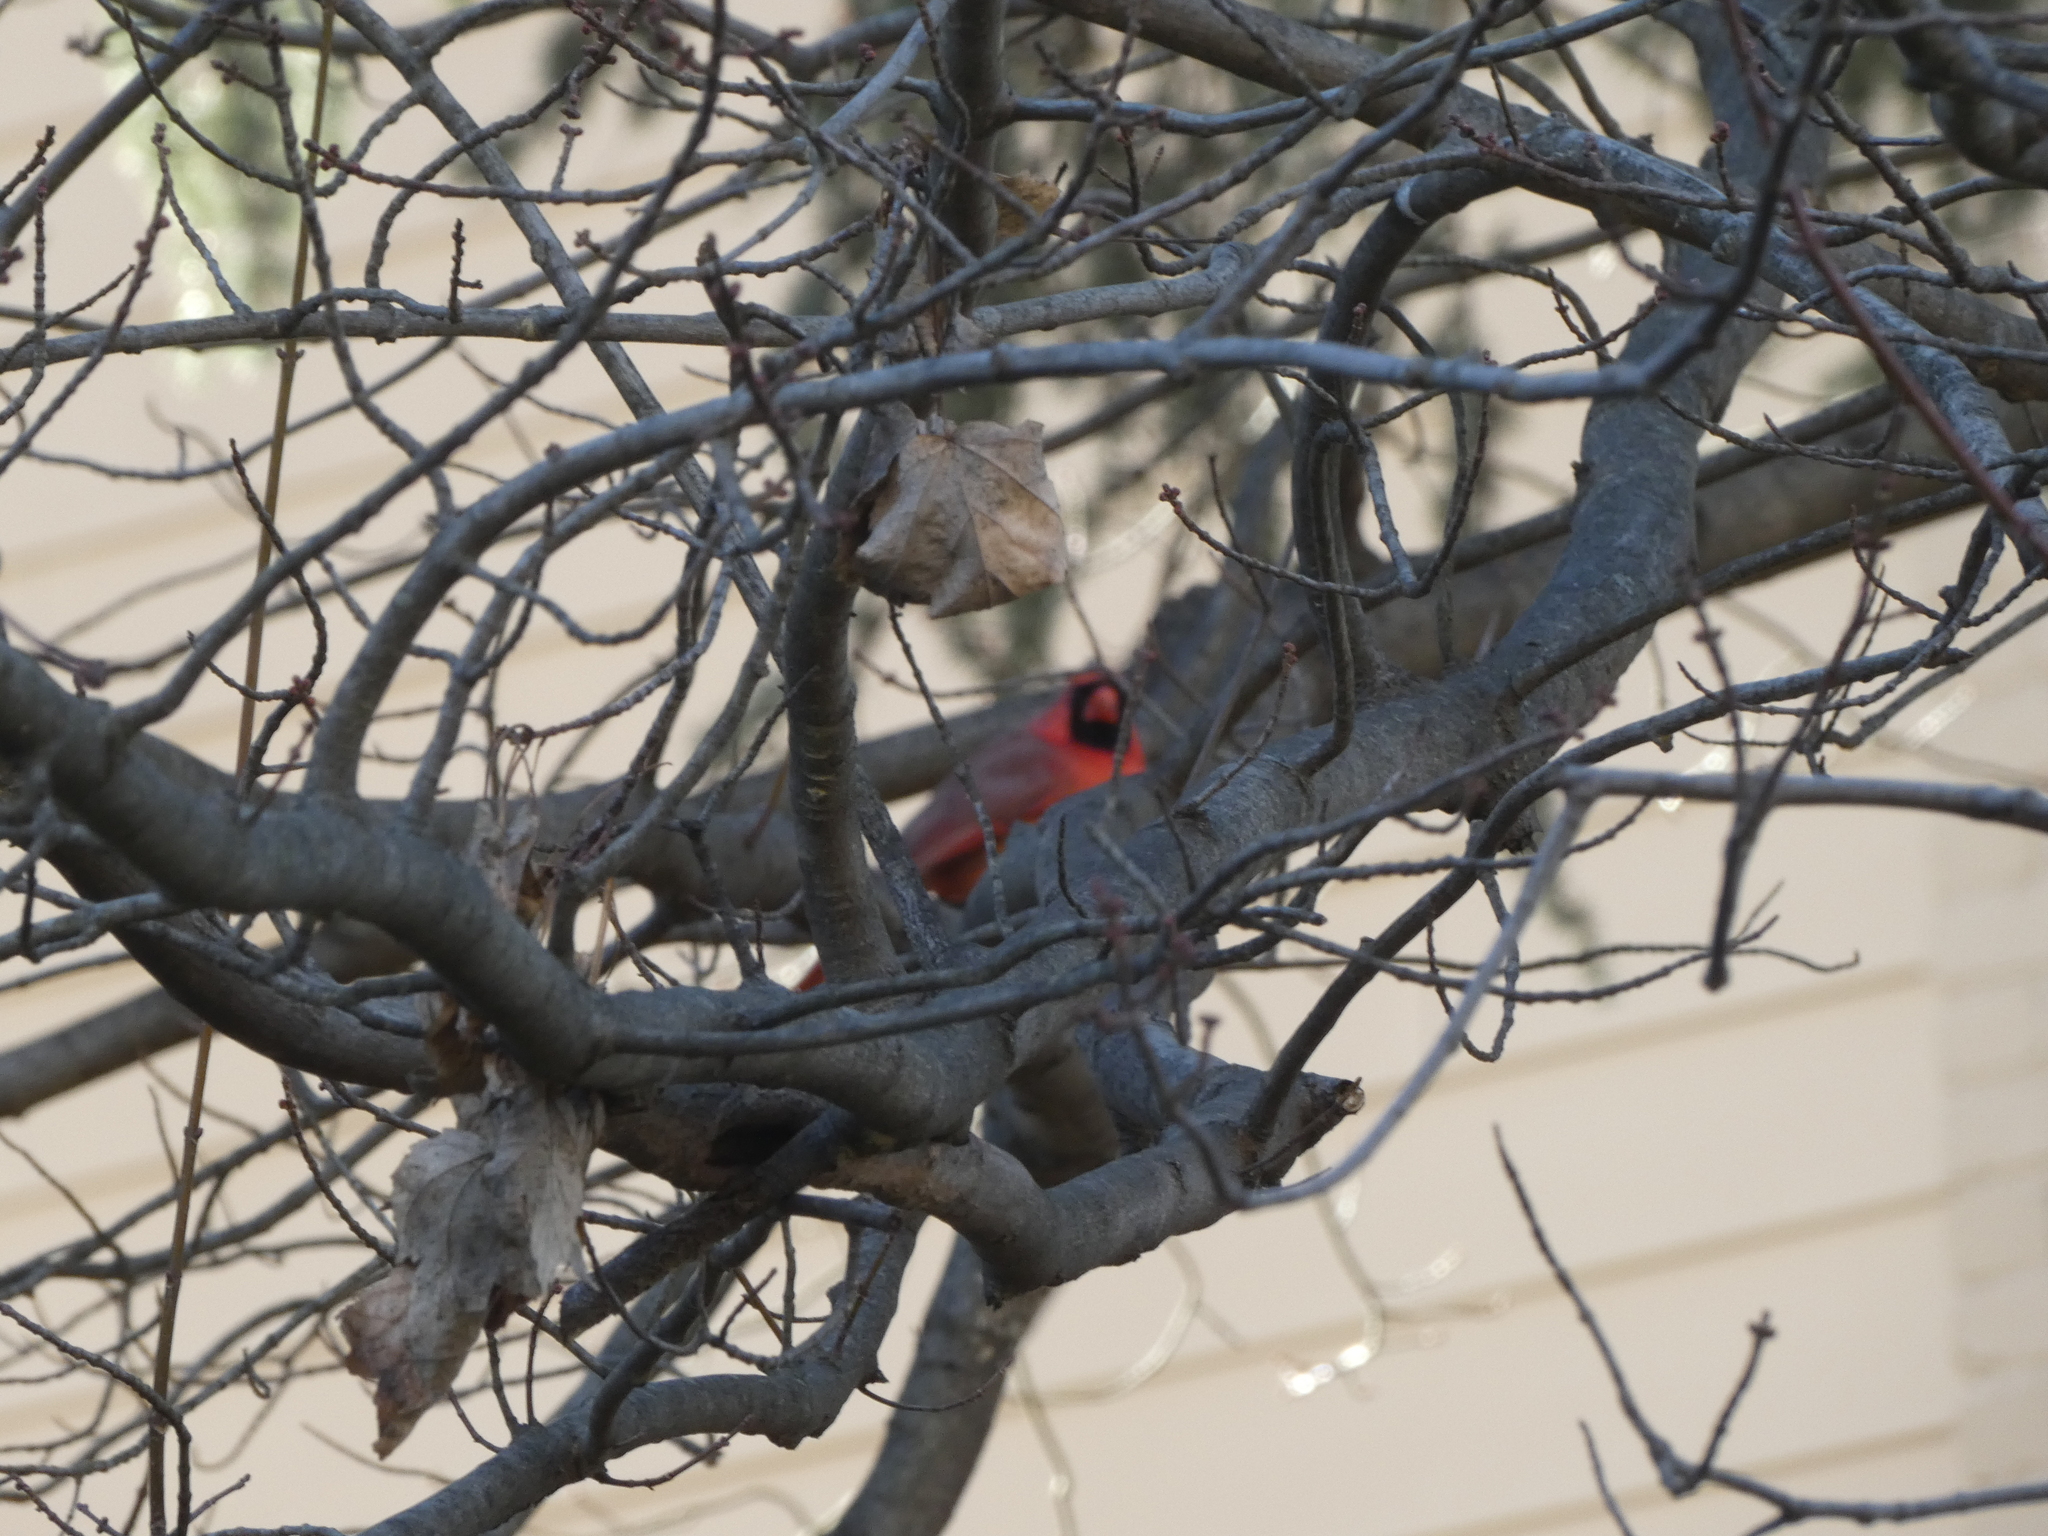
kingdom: Animalia
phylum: Chordata
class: Aves
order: Passeriformes
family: Cardinalidae
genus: Cardinalis
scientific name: Cardinalis cardinalis
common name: Northern cardinal
